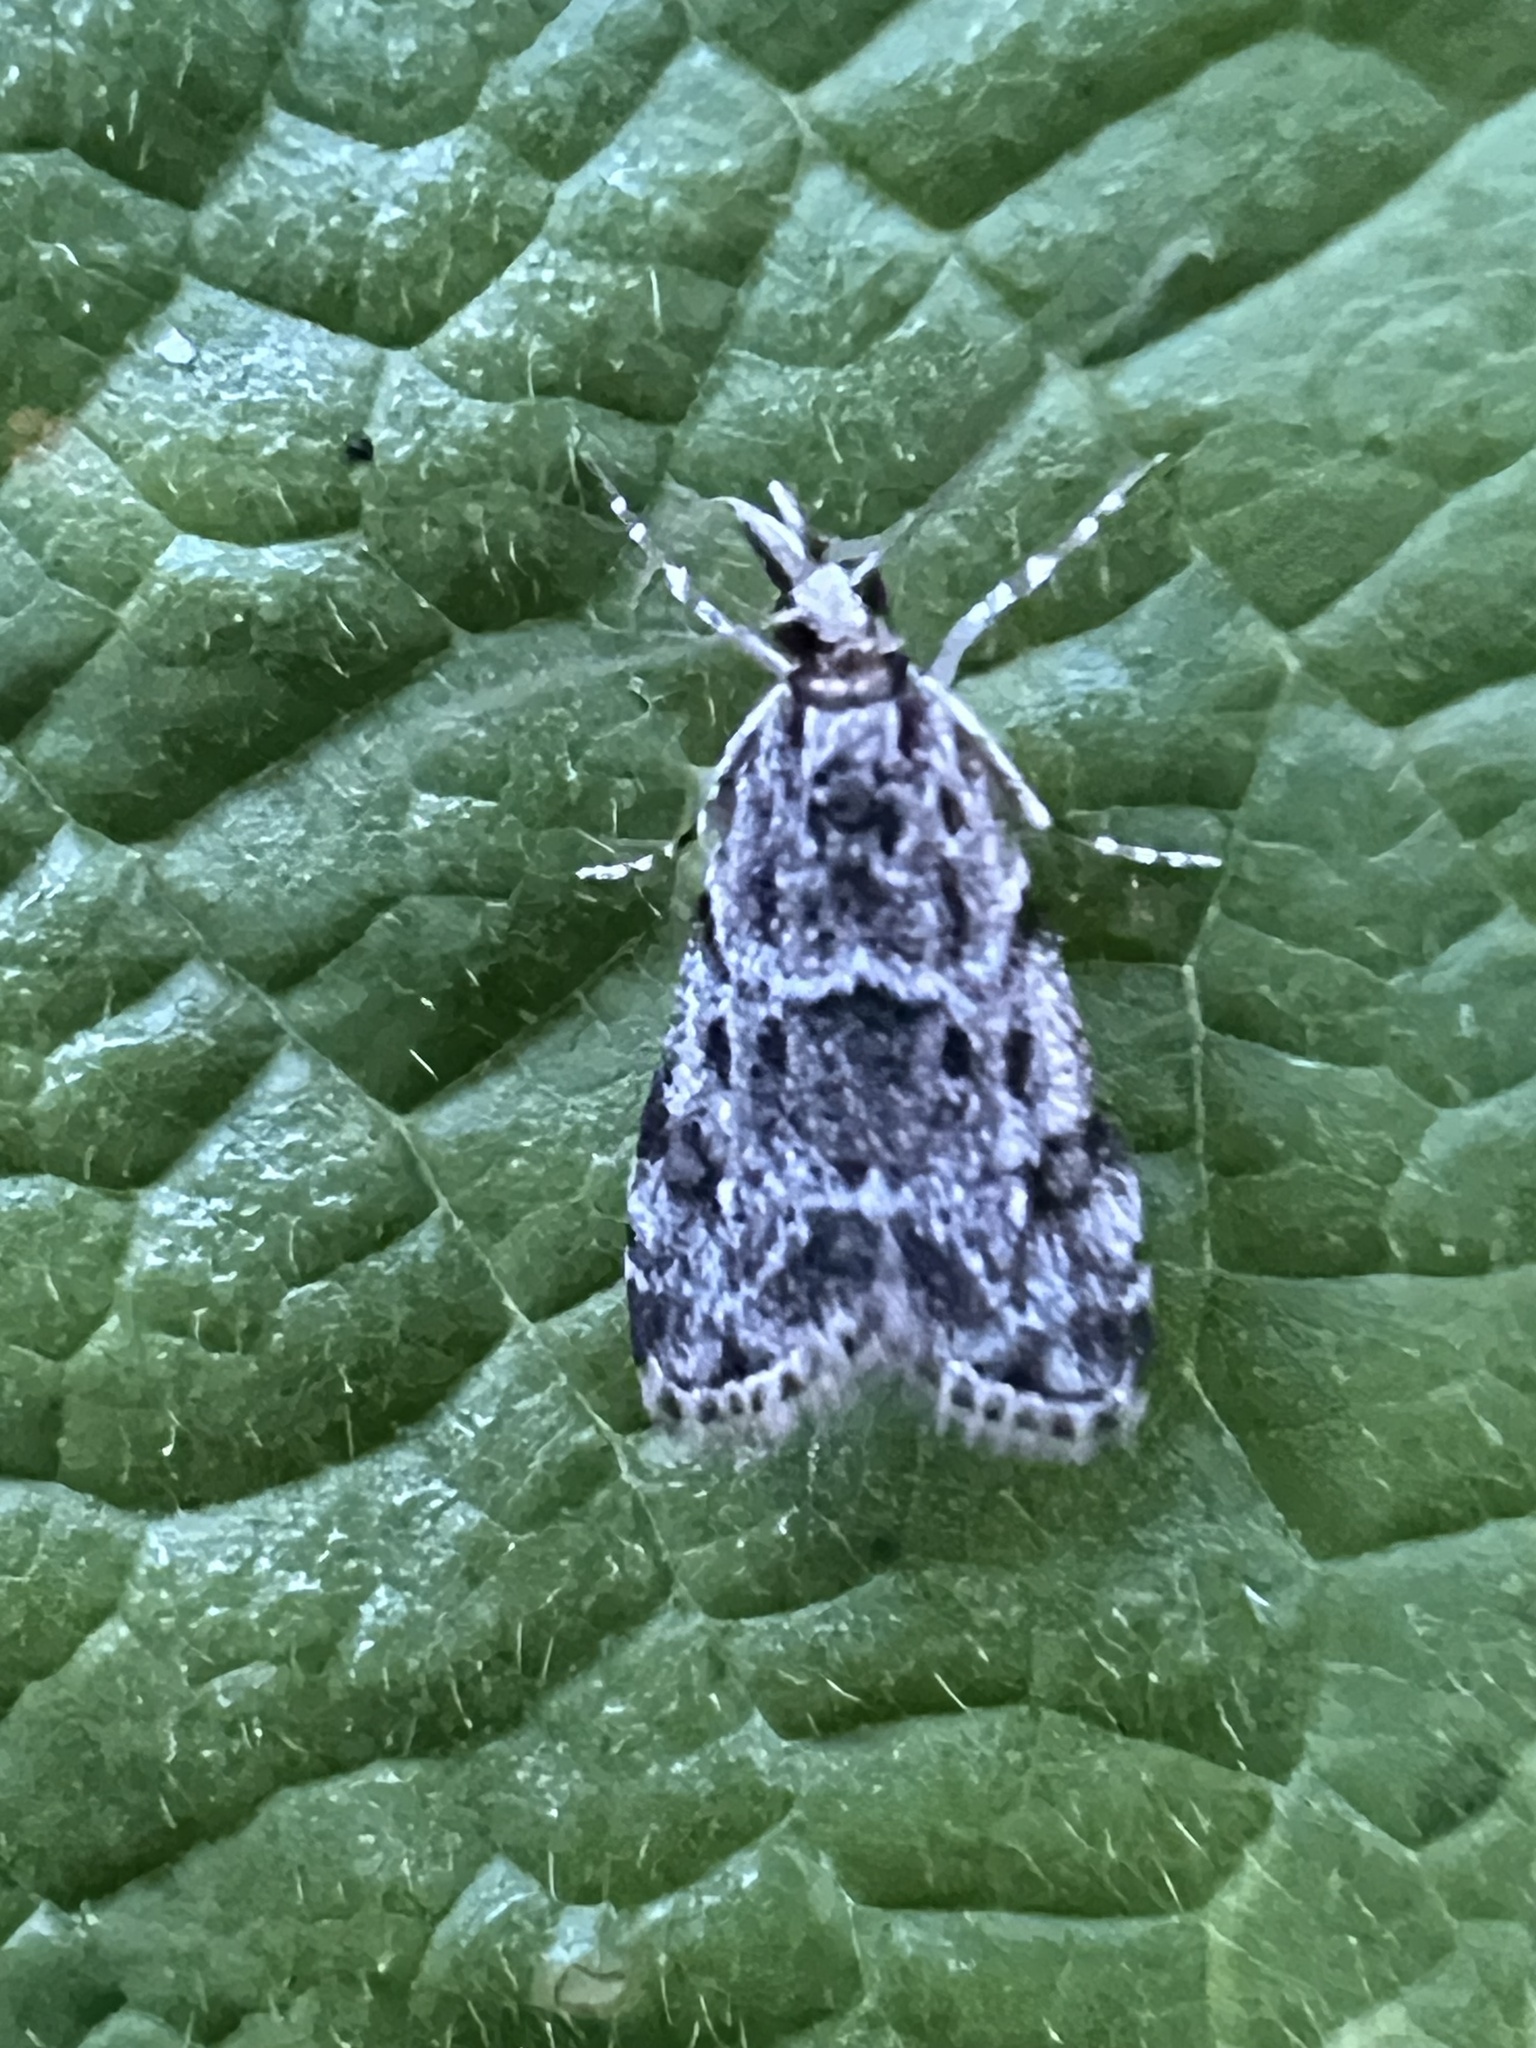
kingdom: Animalia
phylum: Arthropoda
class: Insecta
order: Lepidoptera
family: Crambidae
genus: Eudonia
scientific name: Eudonia heterosalis
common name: Mcdunnough's eudonia
